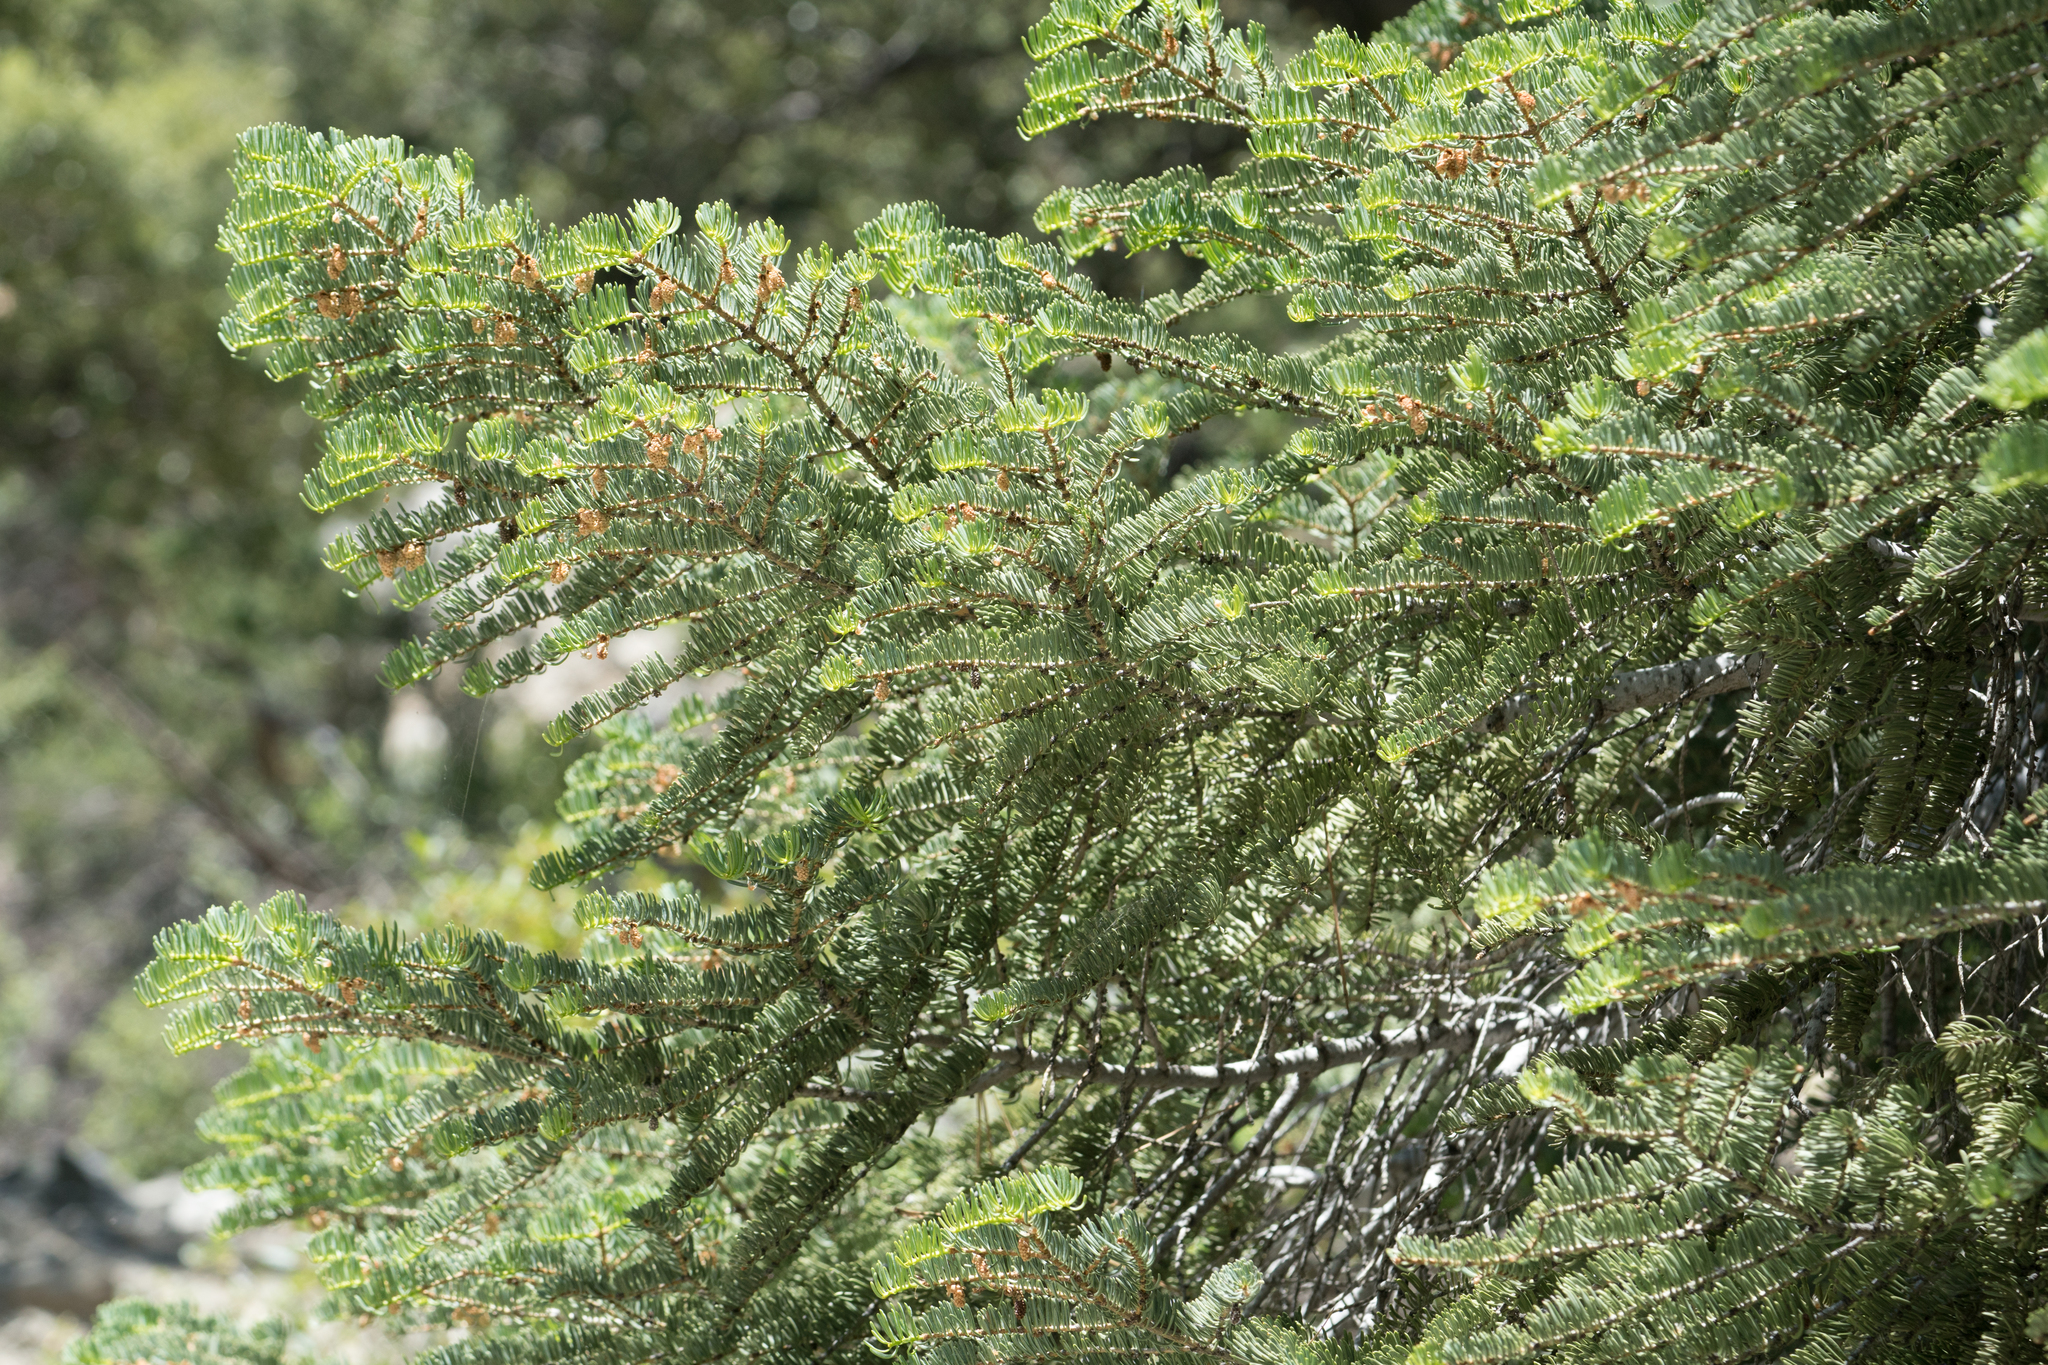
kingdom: Plantae
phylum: Tracheophyta
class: Pinopsida
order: Pinales
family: Pinaceae
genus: Abies
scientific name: Abies concolor
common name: Colorado fir
